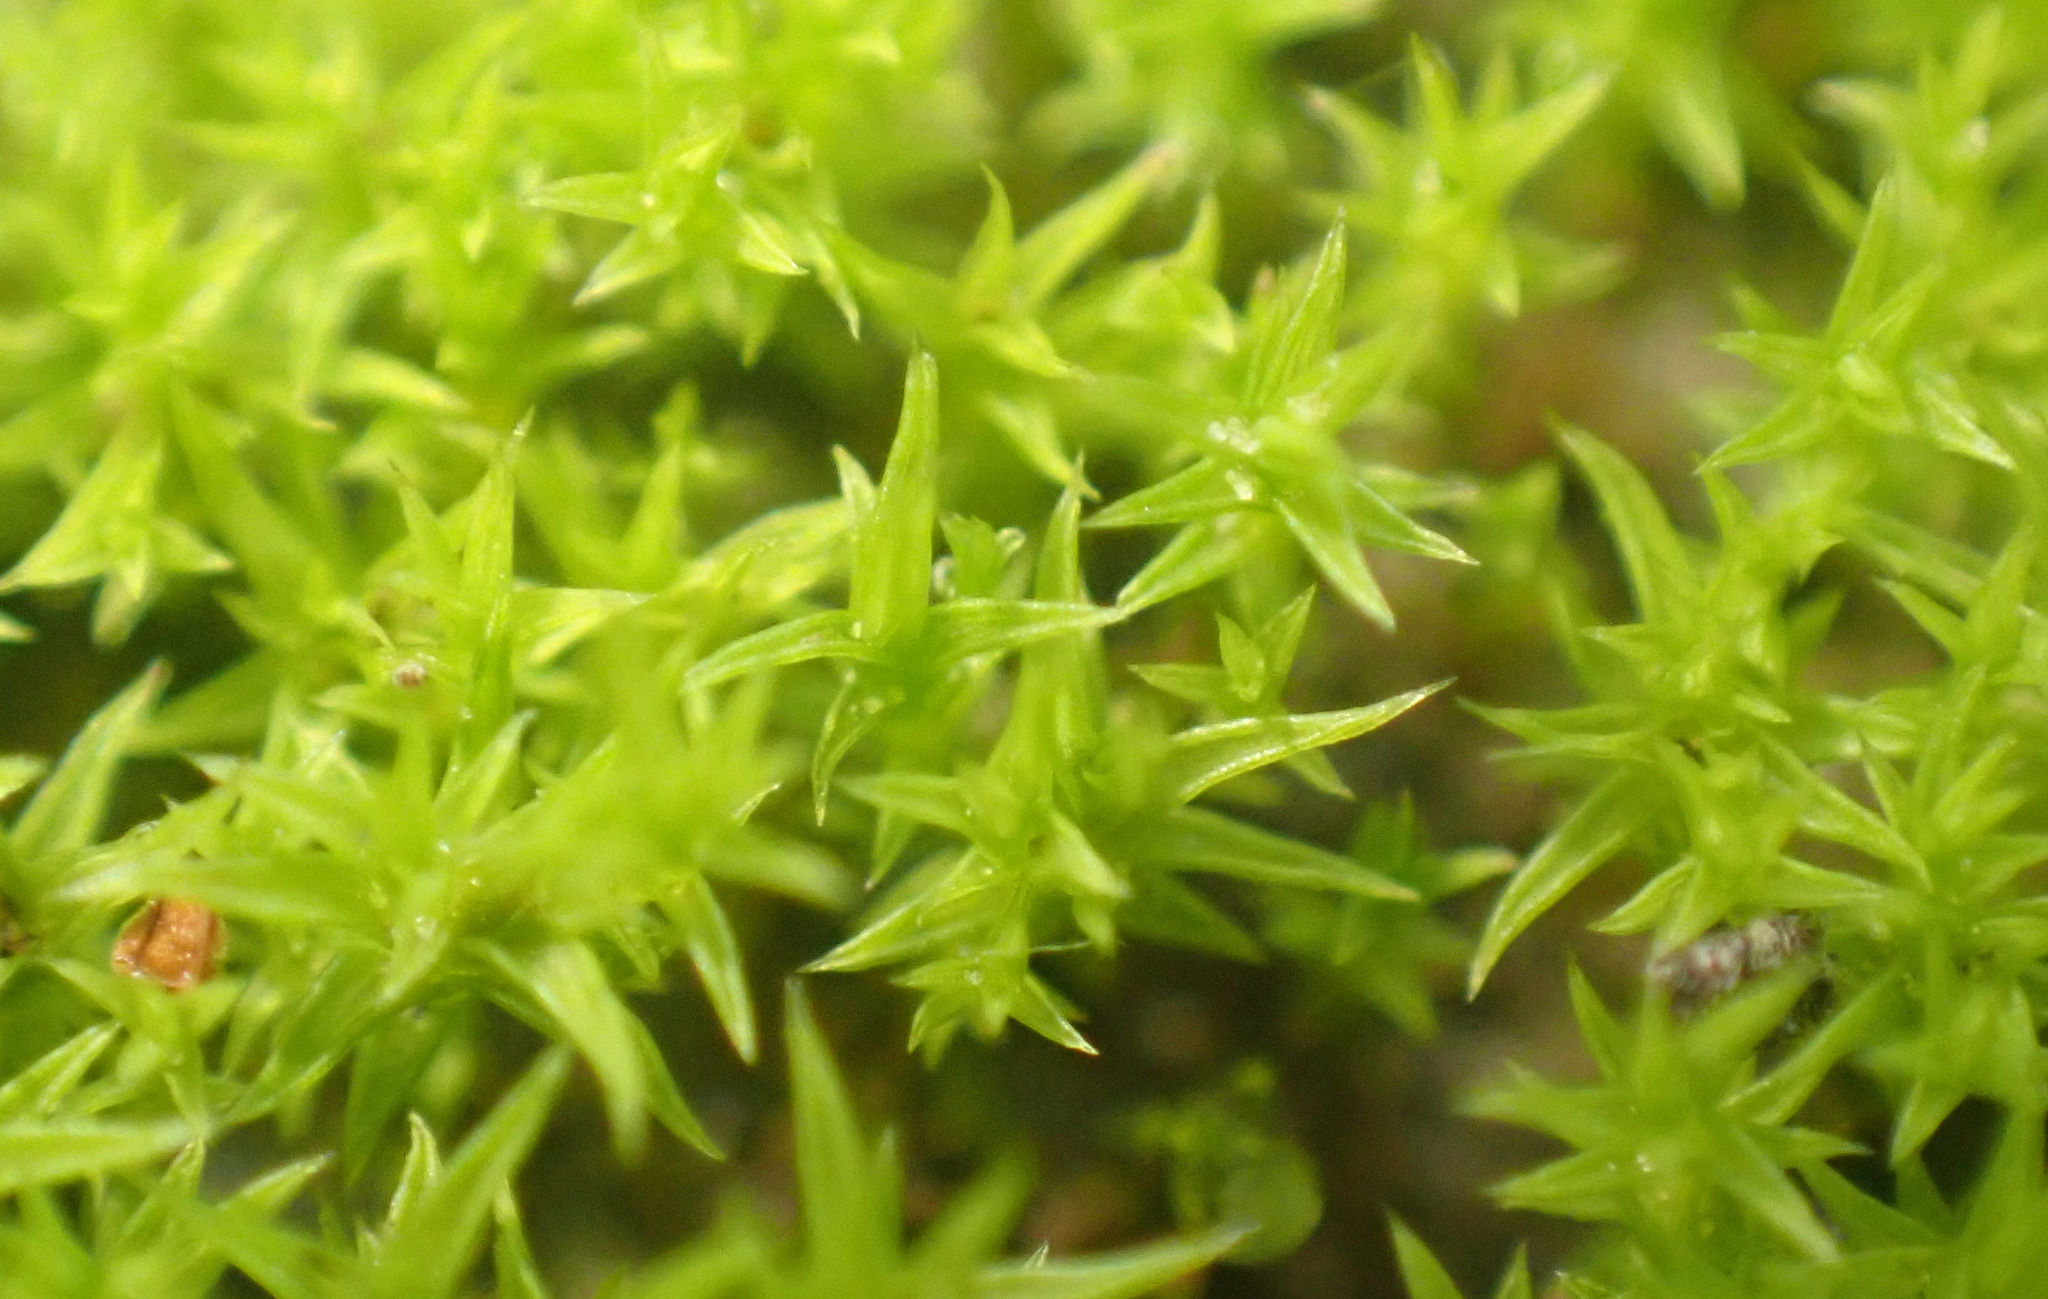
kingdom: Plantae
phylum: Bryophyta
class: Bryopsida
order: Pottiales
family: Pottiaceae
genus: Pseudocrossidium
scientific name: Pseudocrossidium hornschuchianum
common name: Hornschuch's beard-moss
